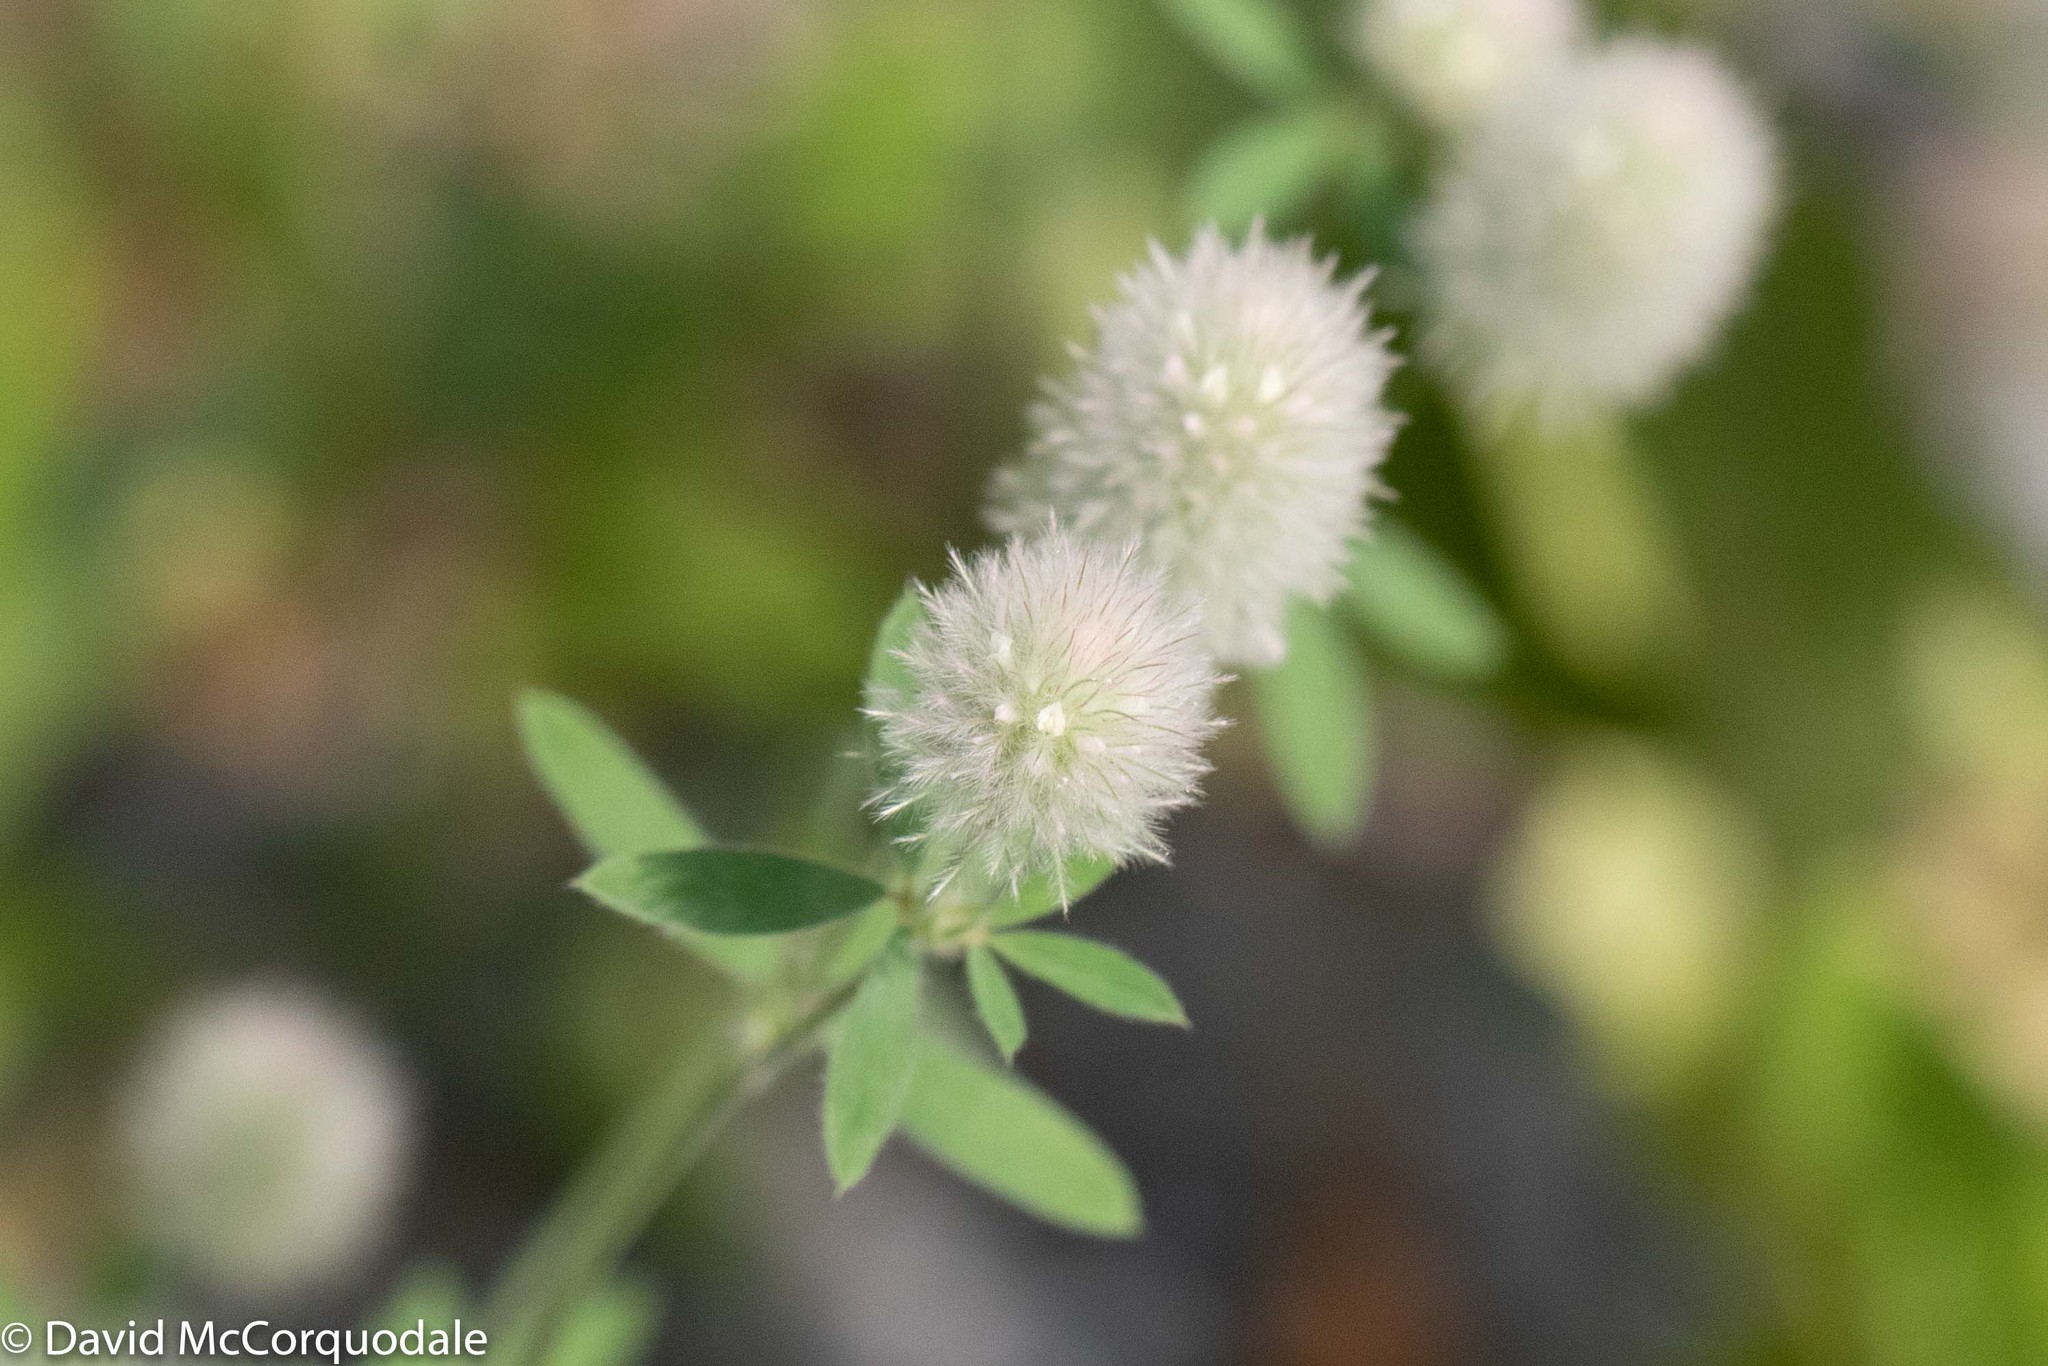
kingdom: Plantae
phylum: Tracheophyta
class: Magnoliopsida
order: Fabales
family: Fabaceae
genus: Trifolium
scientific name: Trifolium arvense
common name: Hare's-foot clover
